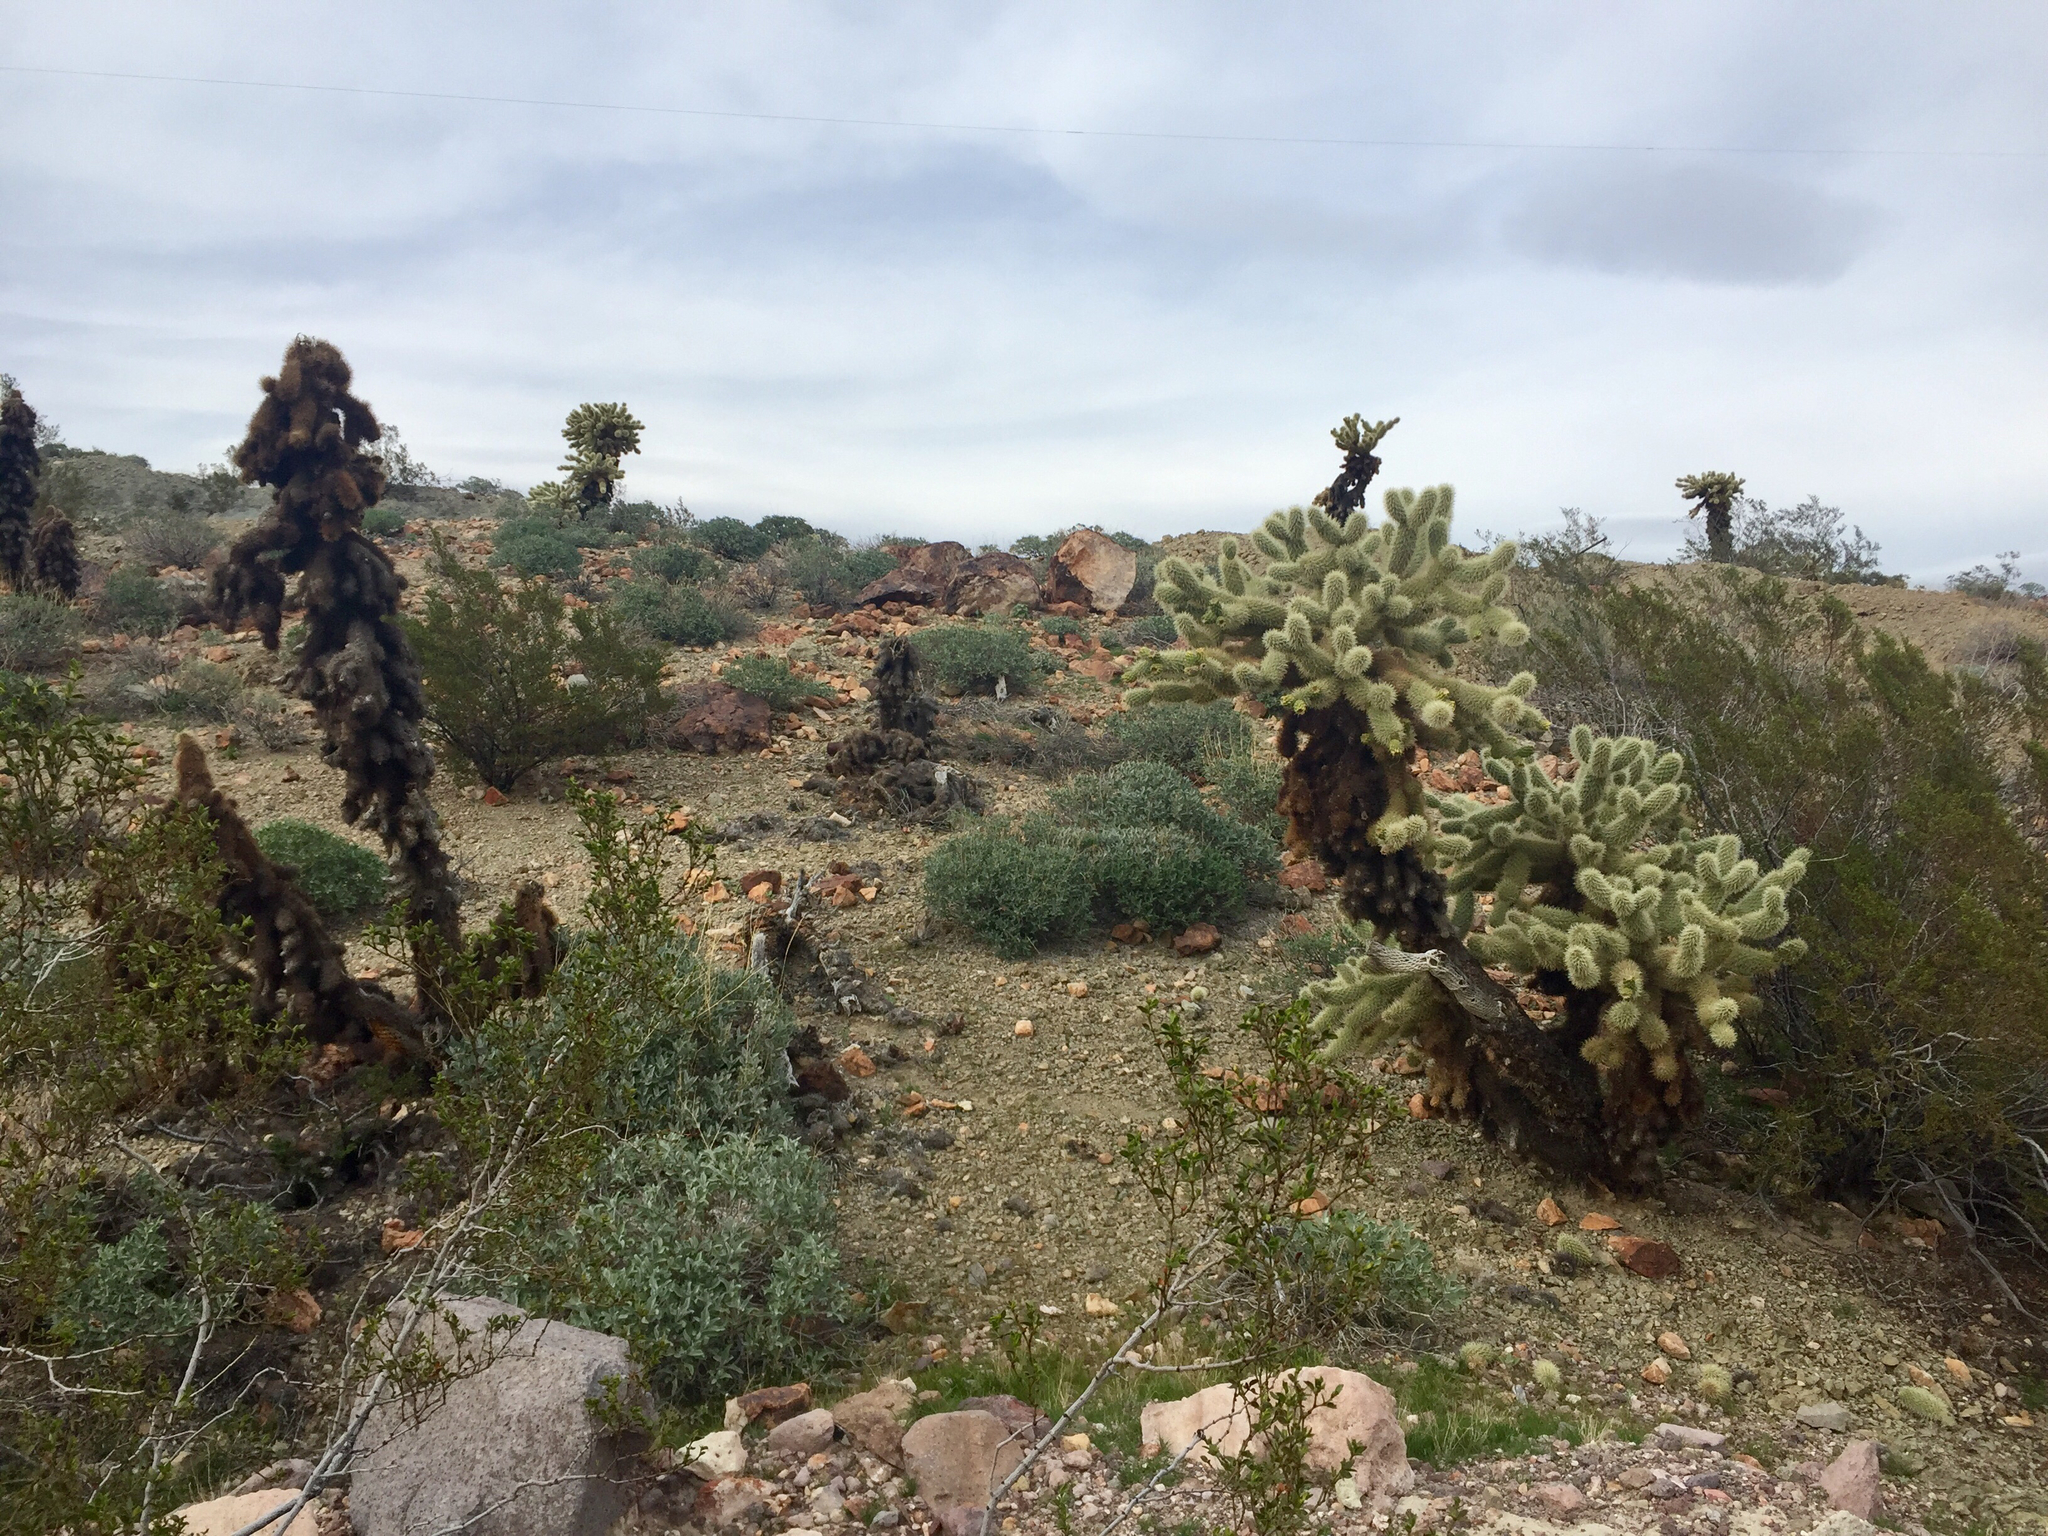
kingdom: Plantae
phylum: Tracheophyta
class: Magnoliopsida
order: Caryophyllales
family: Cactaceae
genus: Cylindropuntia
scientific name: Cylindropuntia fosbergii
